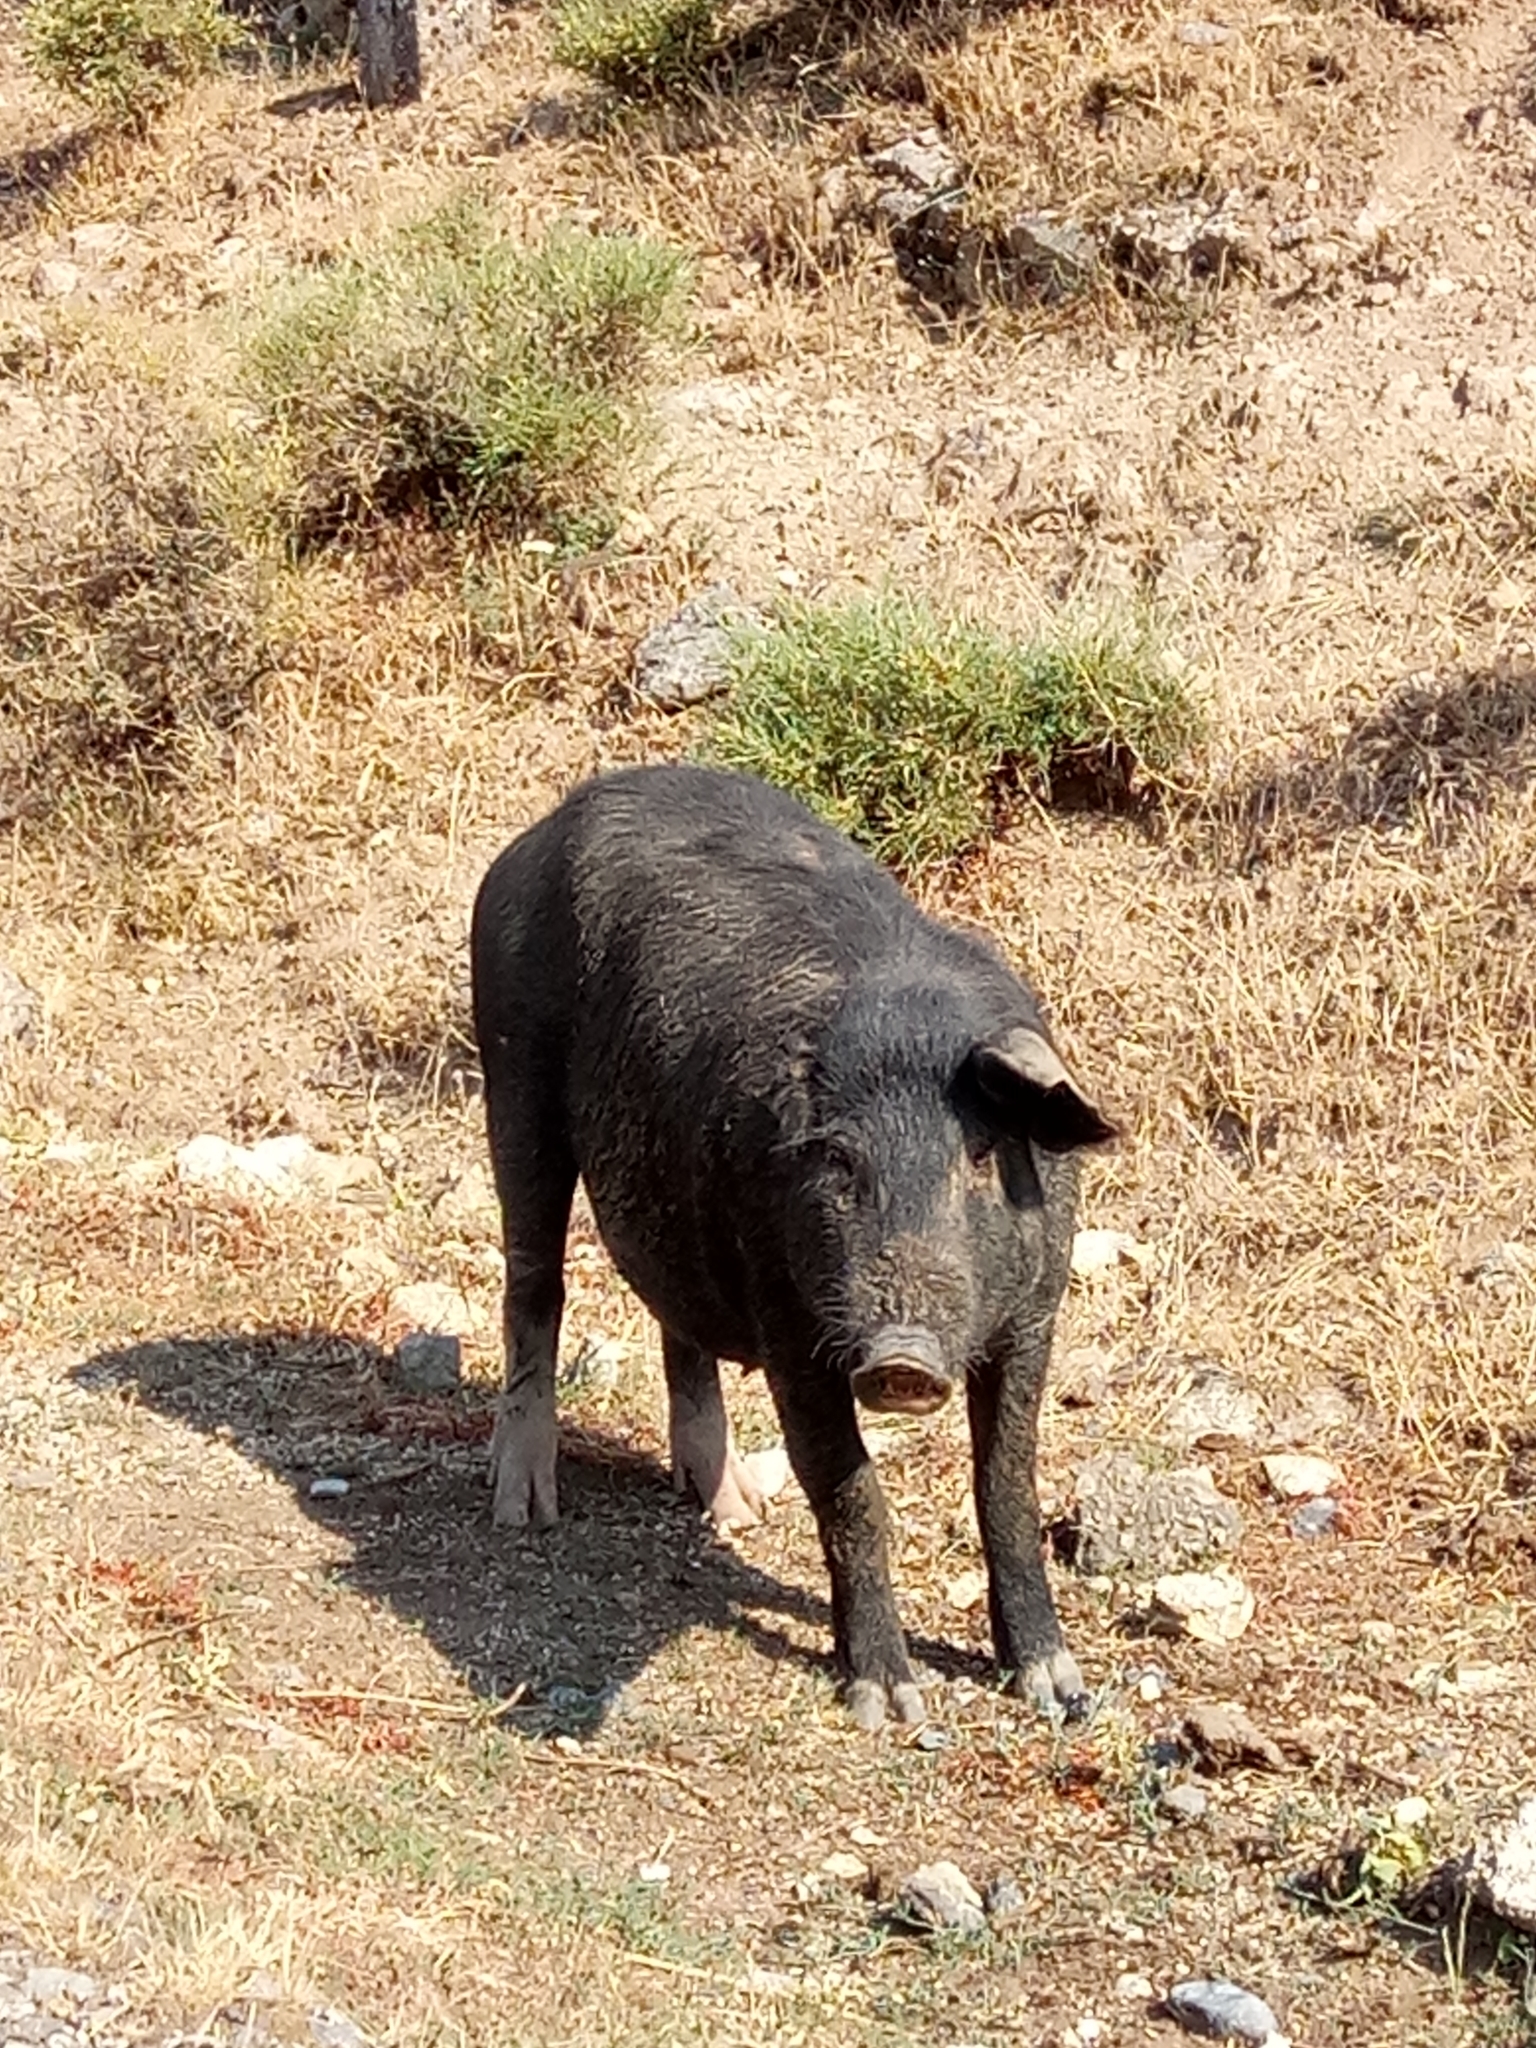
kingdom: Animalia
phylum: Chordata
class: Mammalia
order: Artiodactyla
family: Suidae
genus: Sus
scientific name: Sus scrofa
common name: Wild boar
